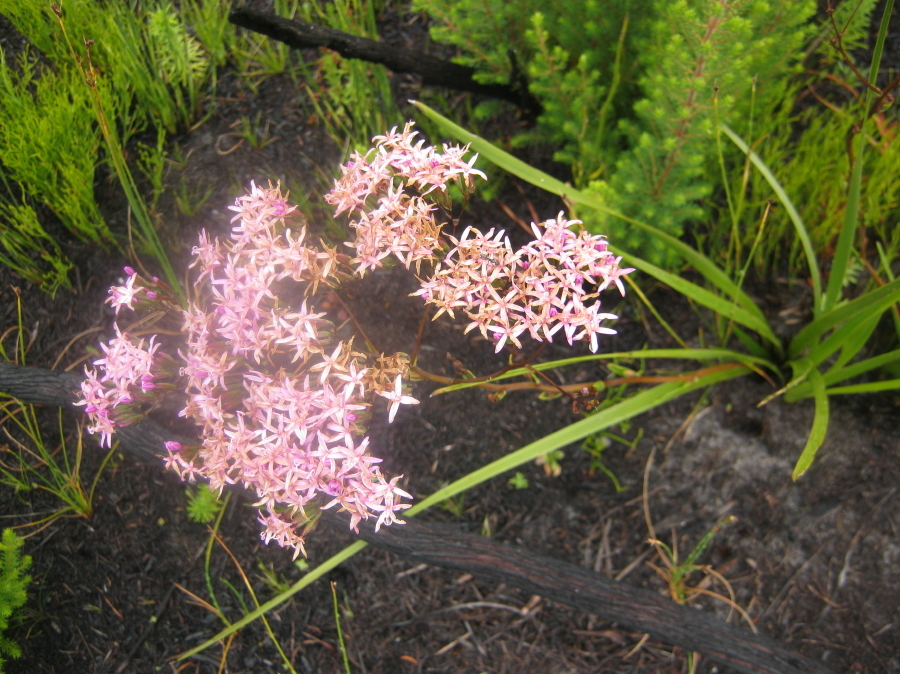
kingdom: Plantae
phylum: Tracheophyta
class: Magnoliopsida
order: Asterales
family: Asteraceae
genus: Corymbium
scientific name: Corymbium africanum
